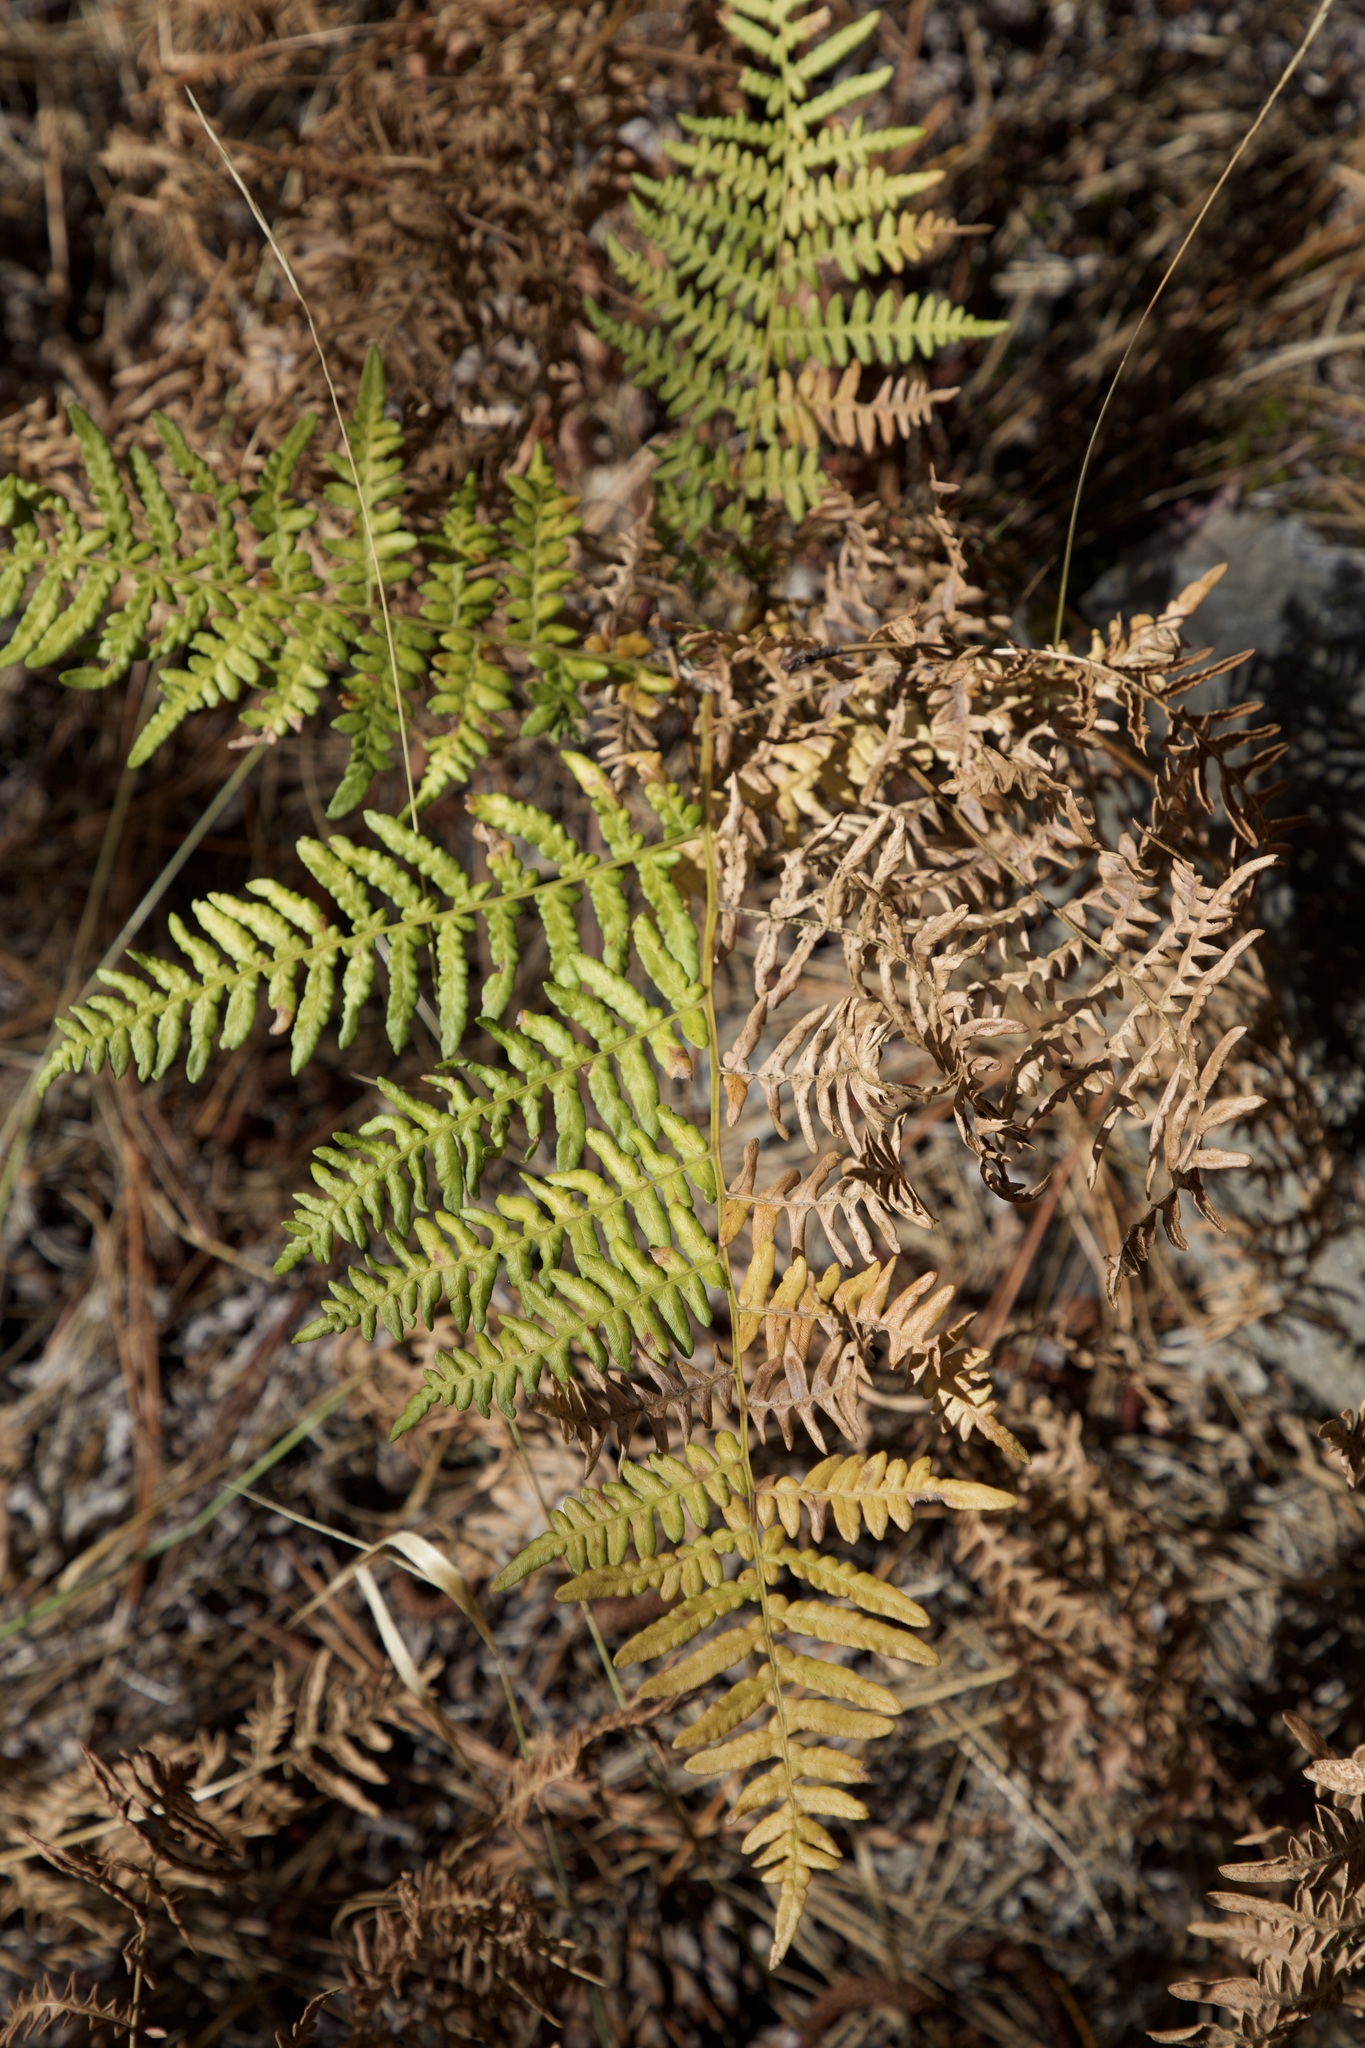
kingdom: Plantae
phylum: Tracheophyta
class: Polypodiopsida
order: Polypodiales
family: Dennstaedtiaceae
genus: Pteridium
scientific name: Pteridium aquilinum
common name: Bracken
